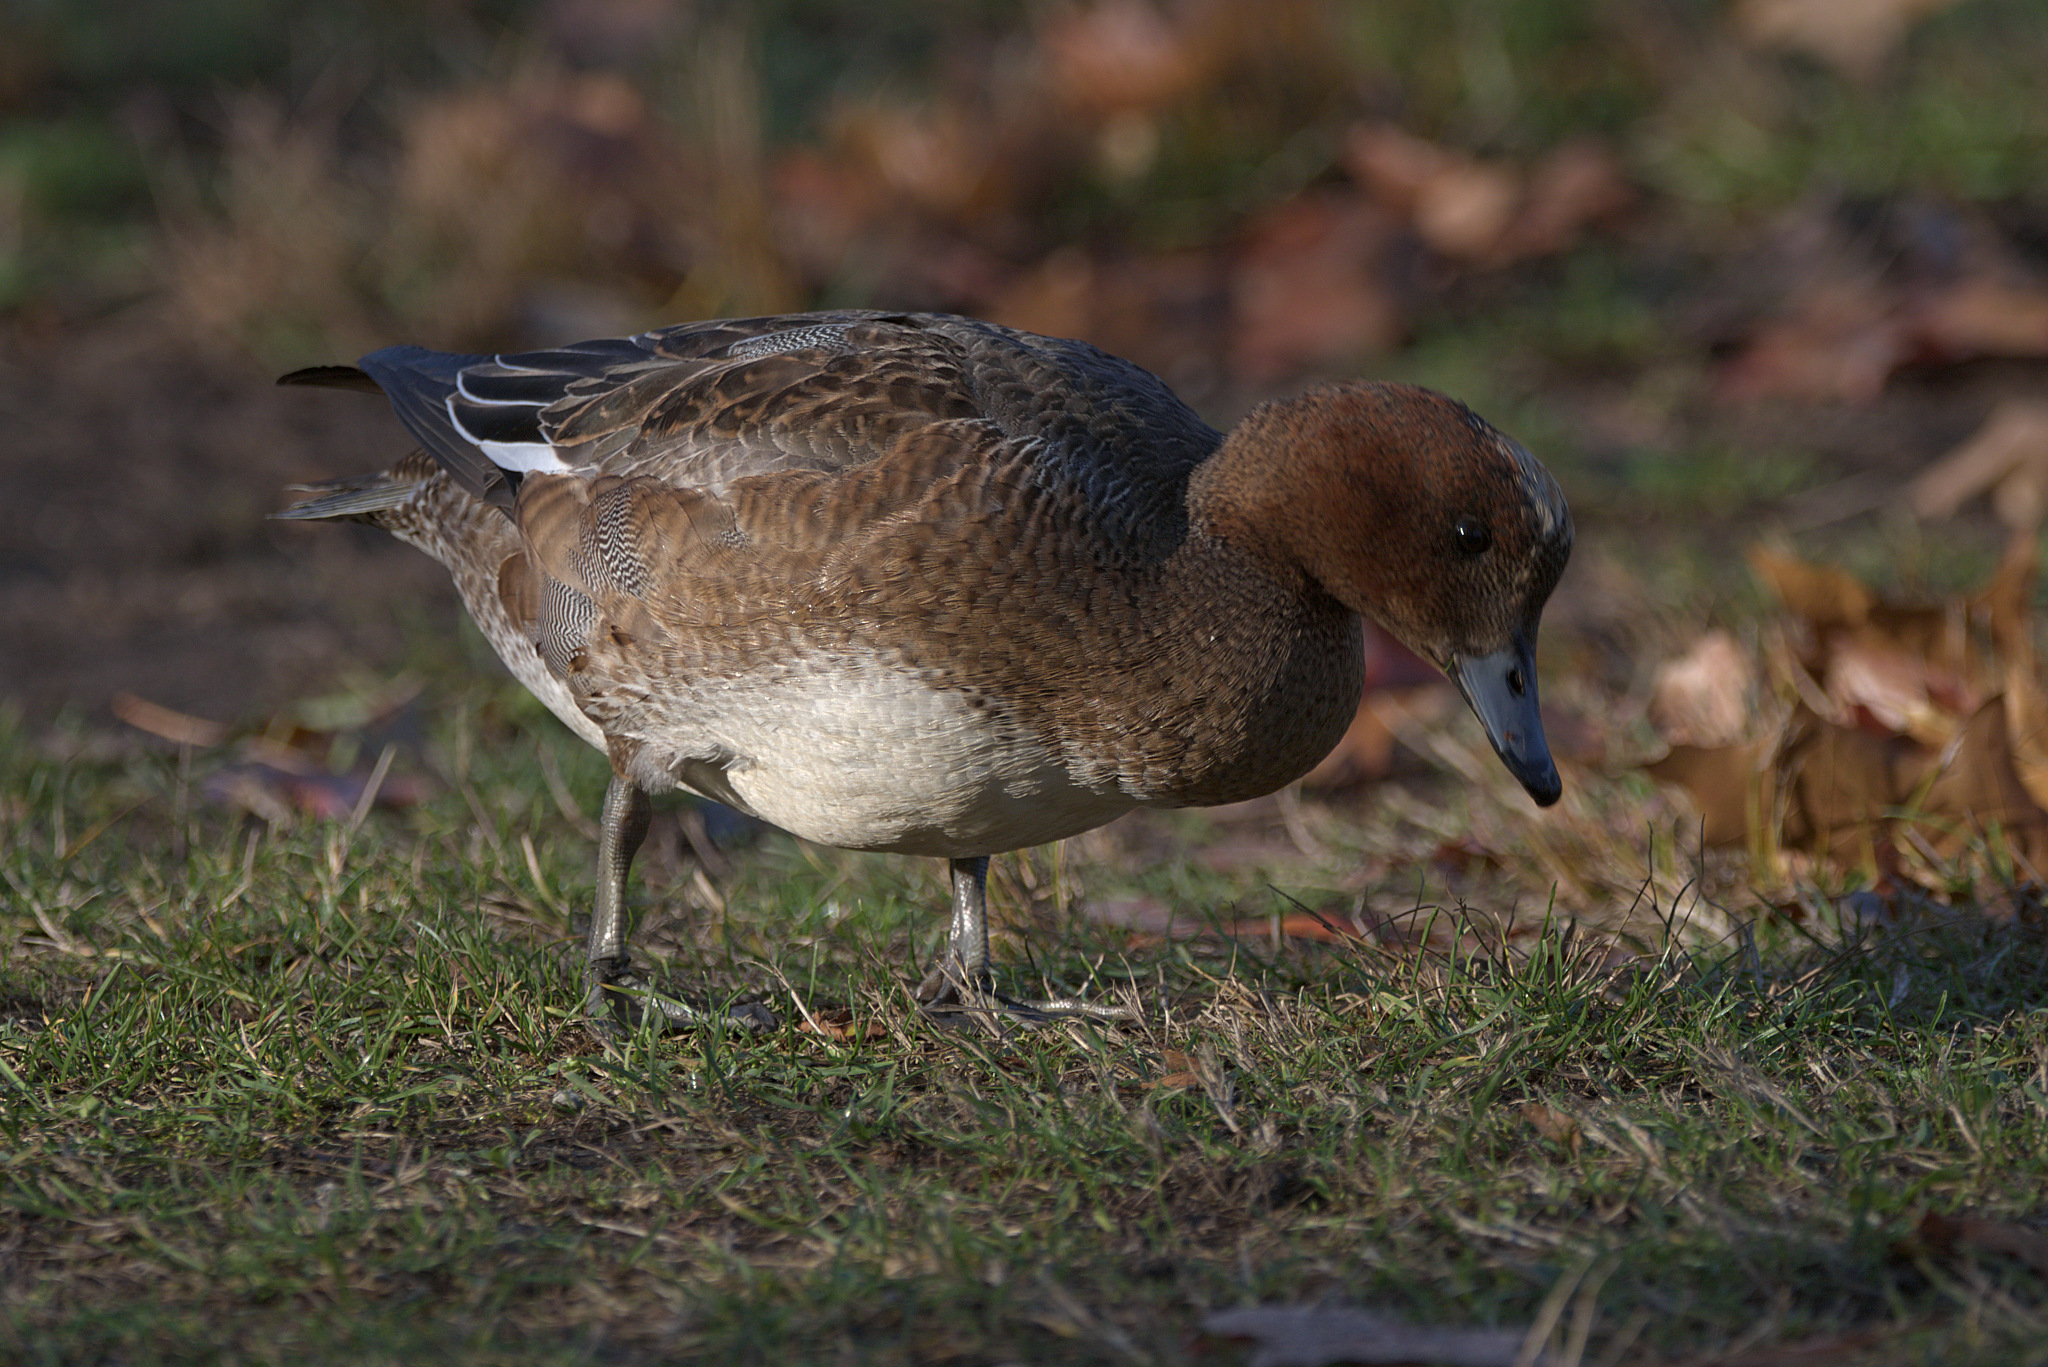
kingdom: Animalia
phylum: Chordata
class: Aves
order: Anseriformes
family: Anatidae
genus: Mareca
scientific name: Mareca penelope
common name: Eurasian wigeon
